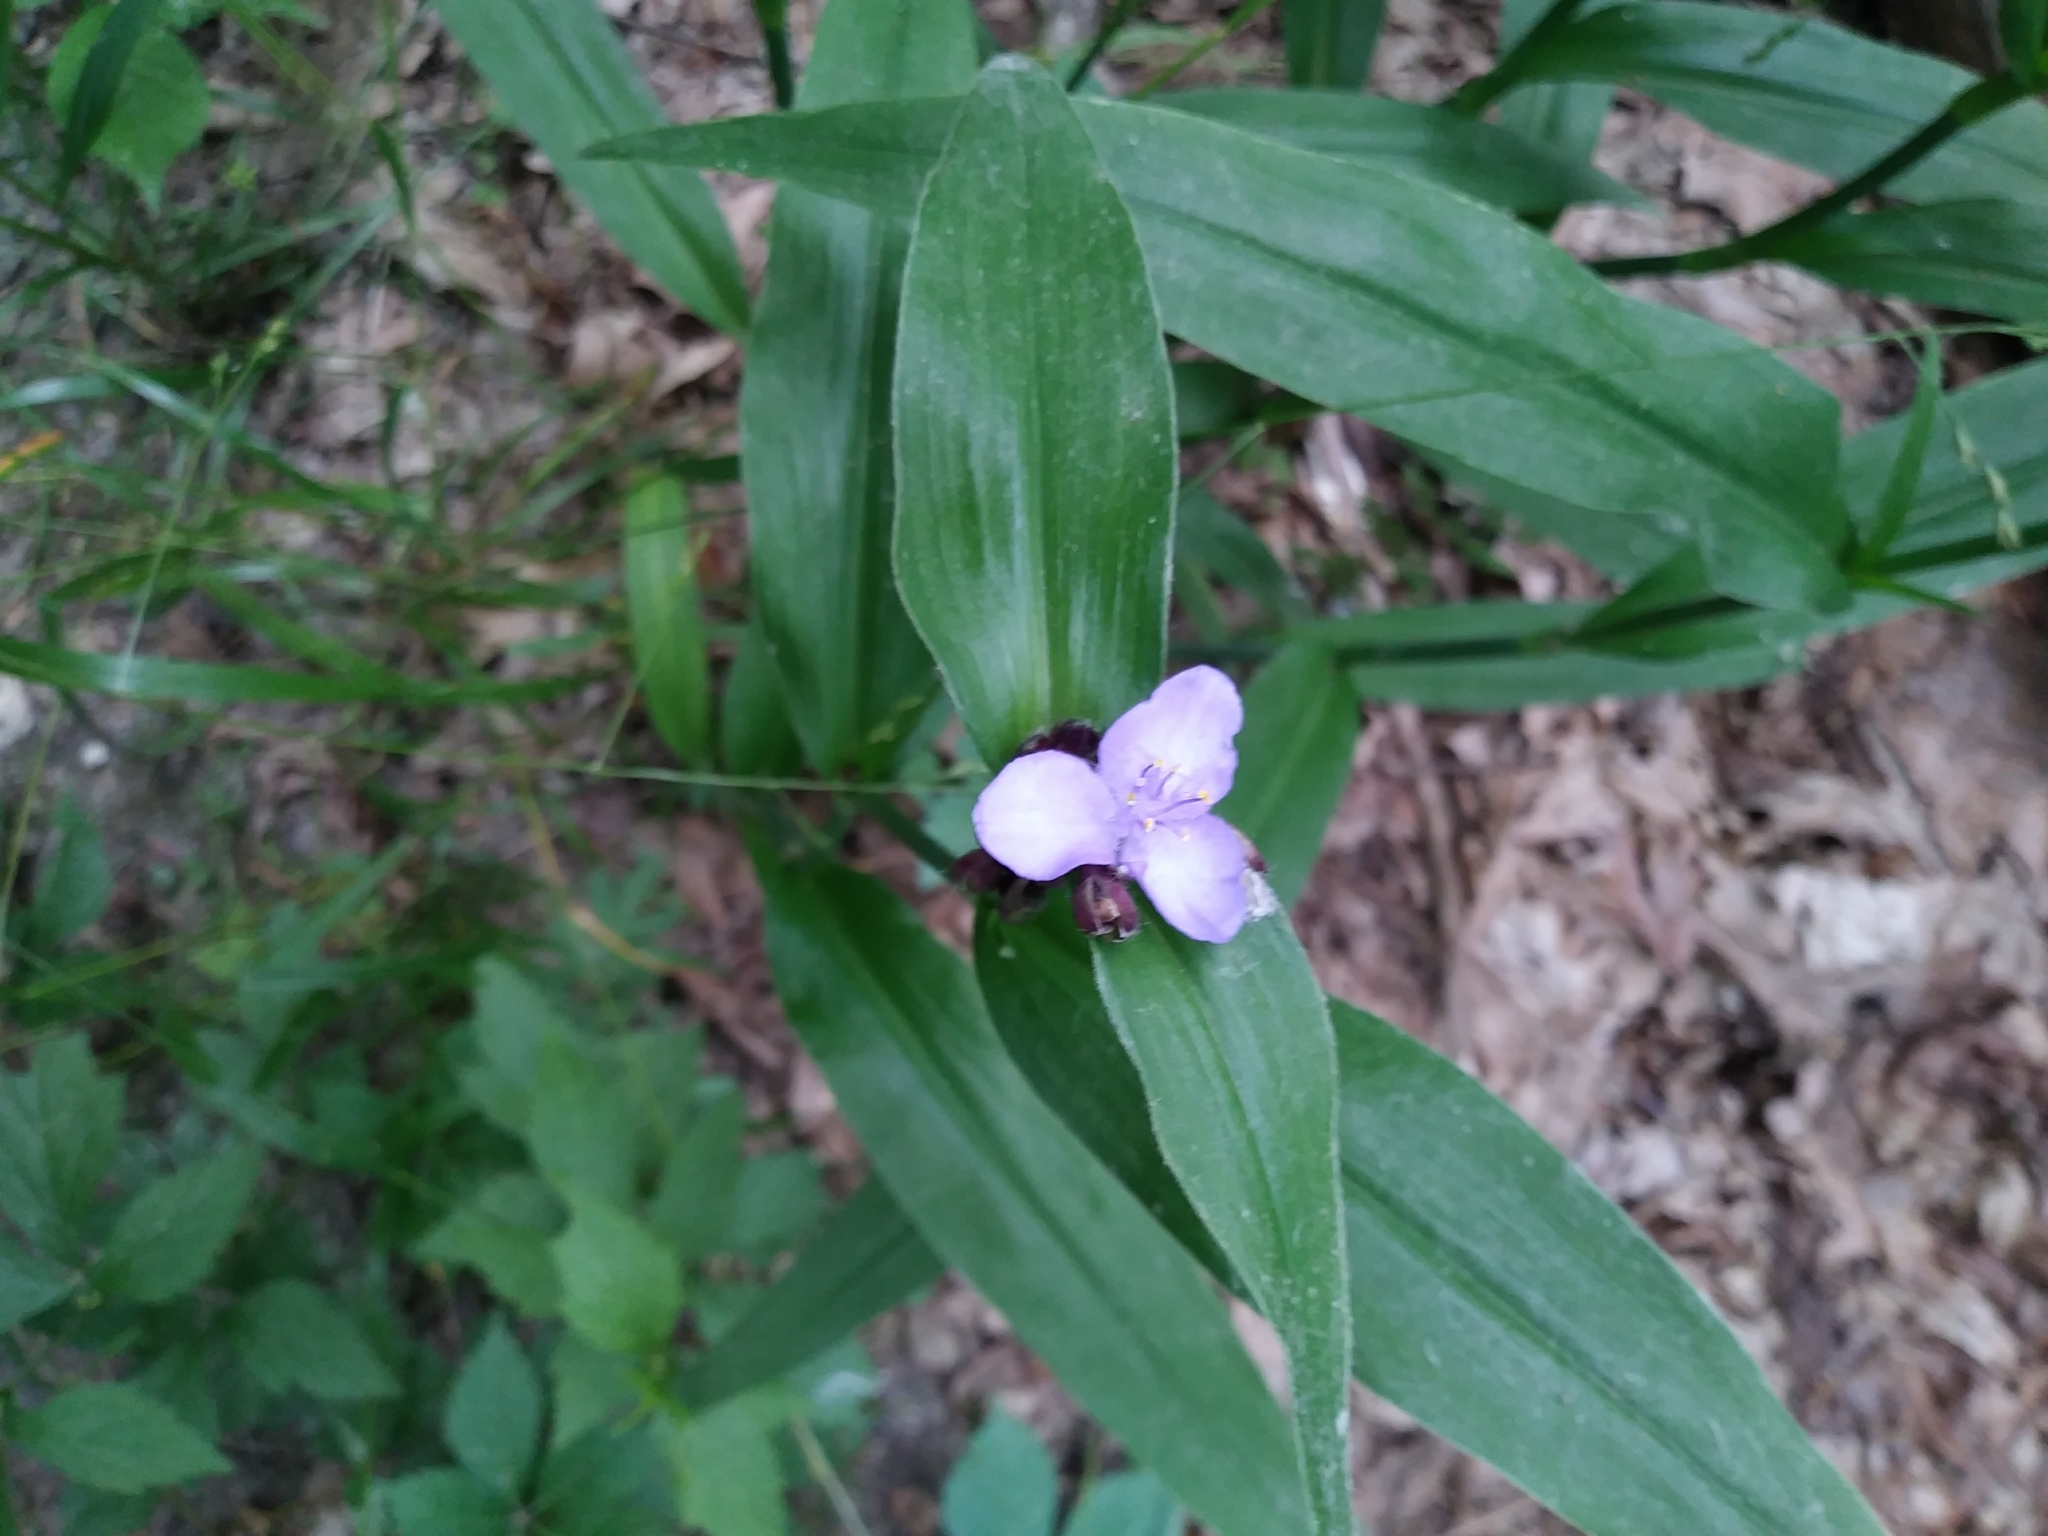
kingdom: Plantae
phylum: Tracheophyta
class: Liliopsida
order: Commelinales
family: Commelinaceae
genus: Tradescantia
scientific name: Tradescantia subaspera
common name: Wide-leaf spiderwort
